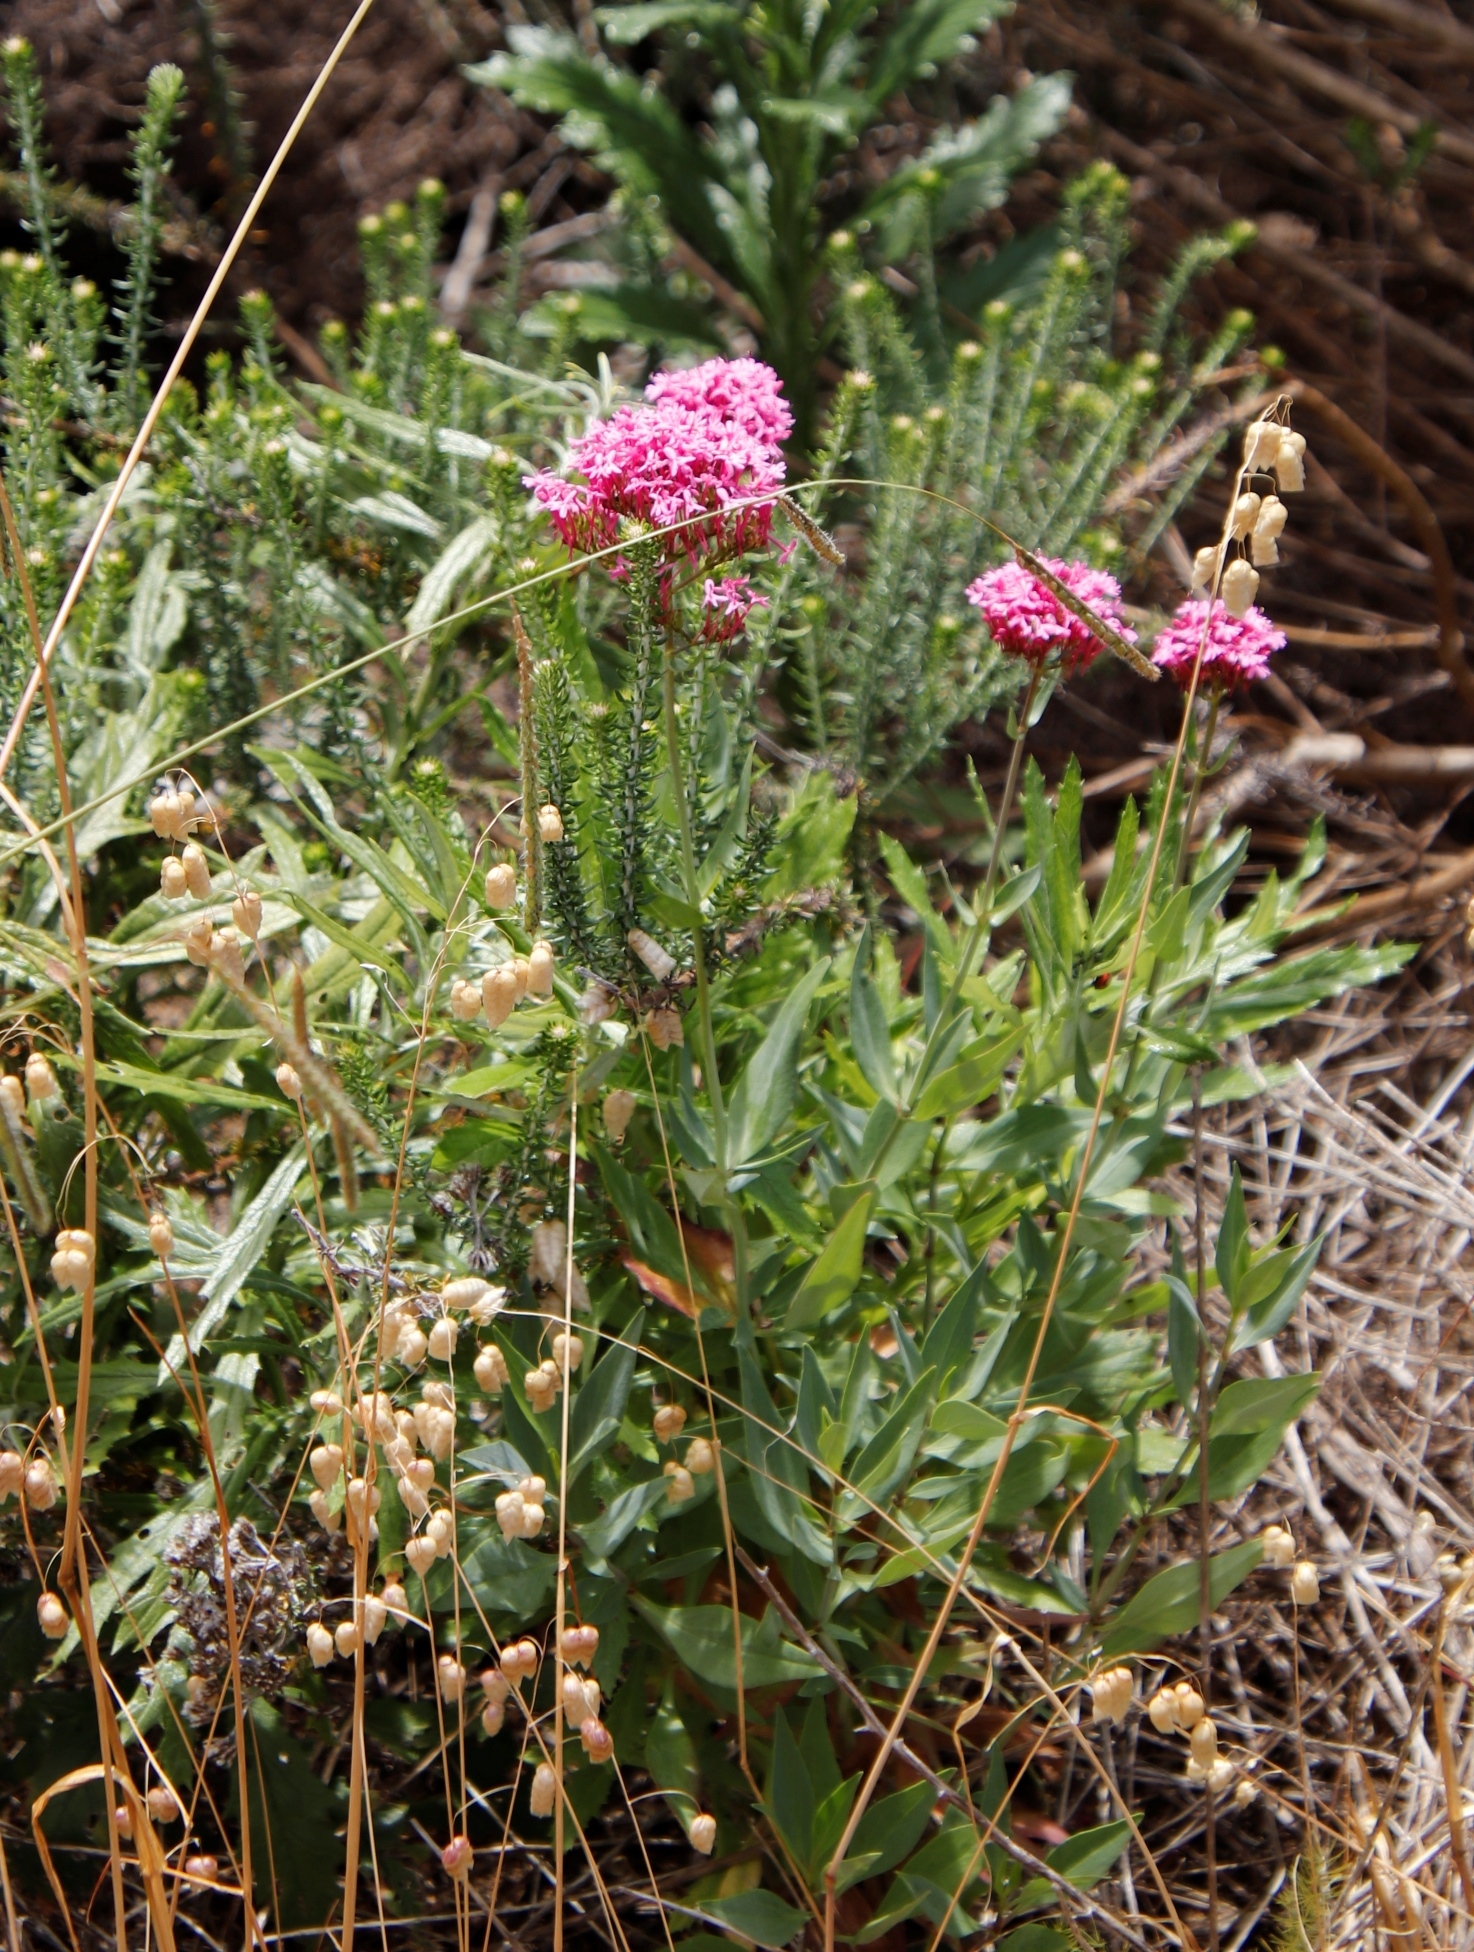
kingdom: Plantae
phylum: Tracheophyta
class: Magnoliopsida
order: Dipsacales
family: Caprifoliaceae
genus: Centranthus
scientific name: Centranthus ruber
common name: Red valerian
